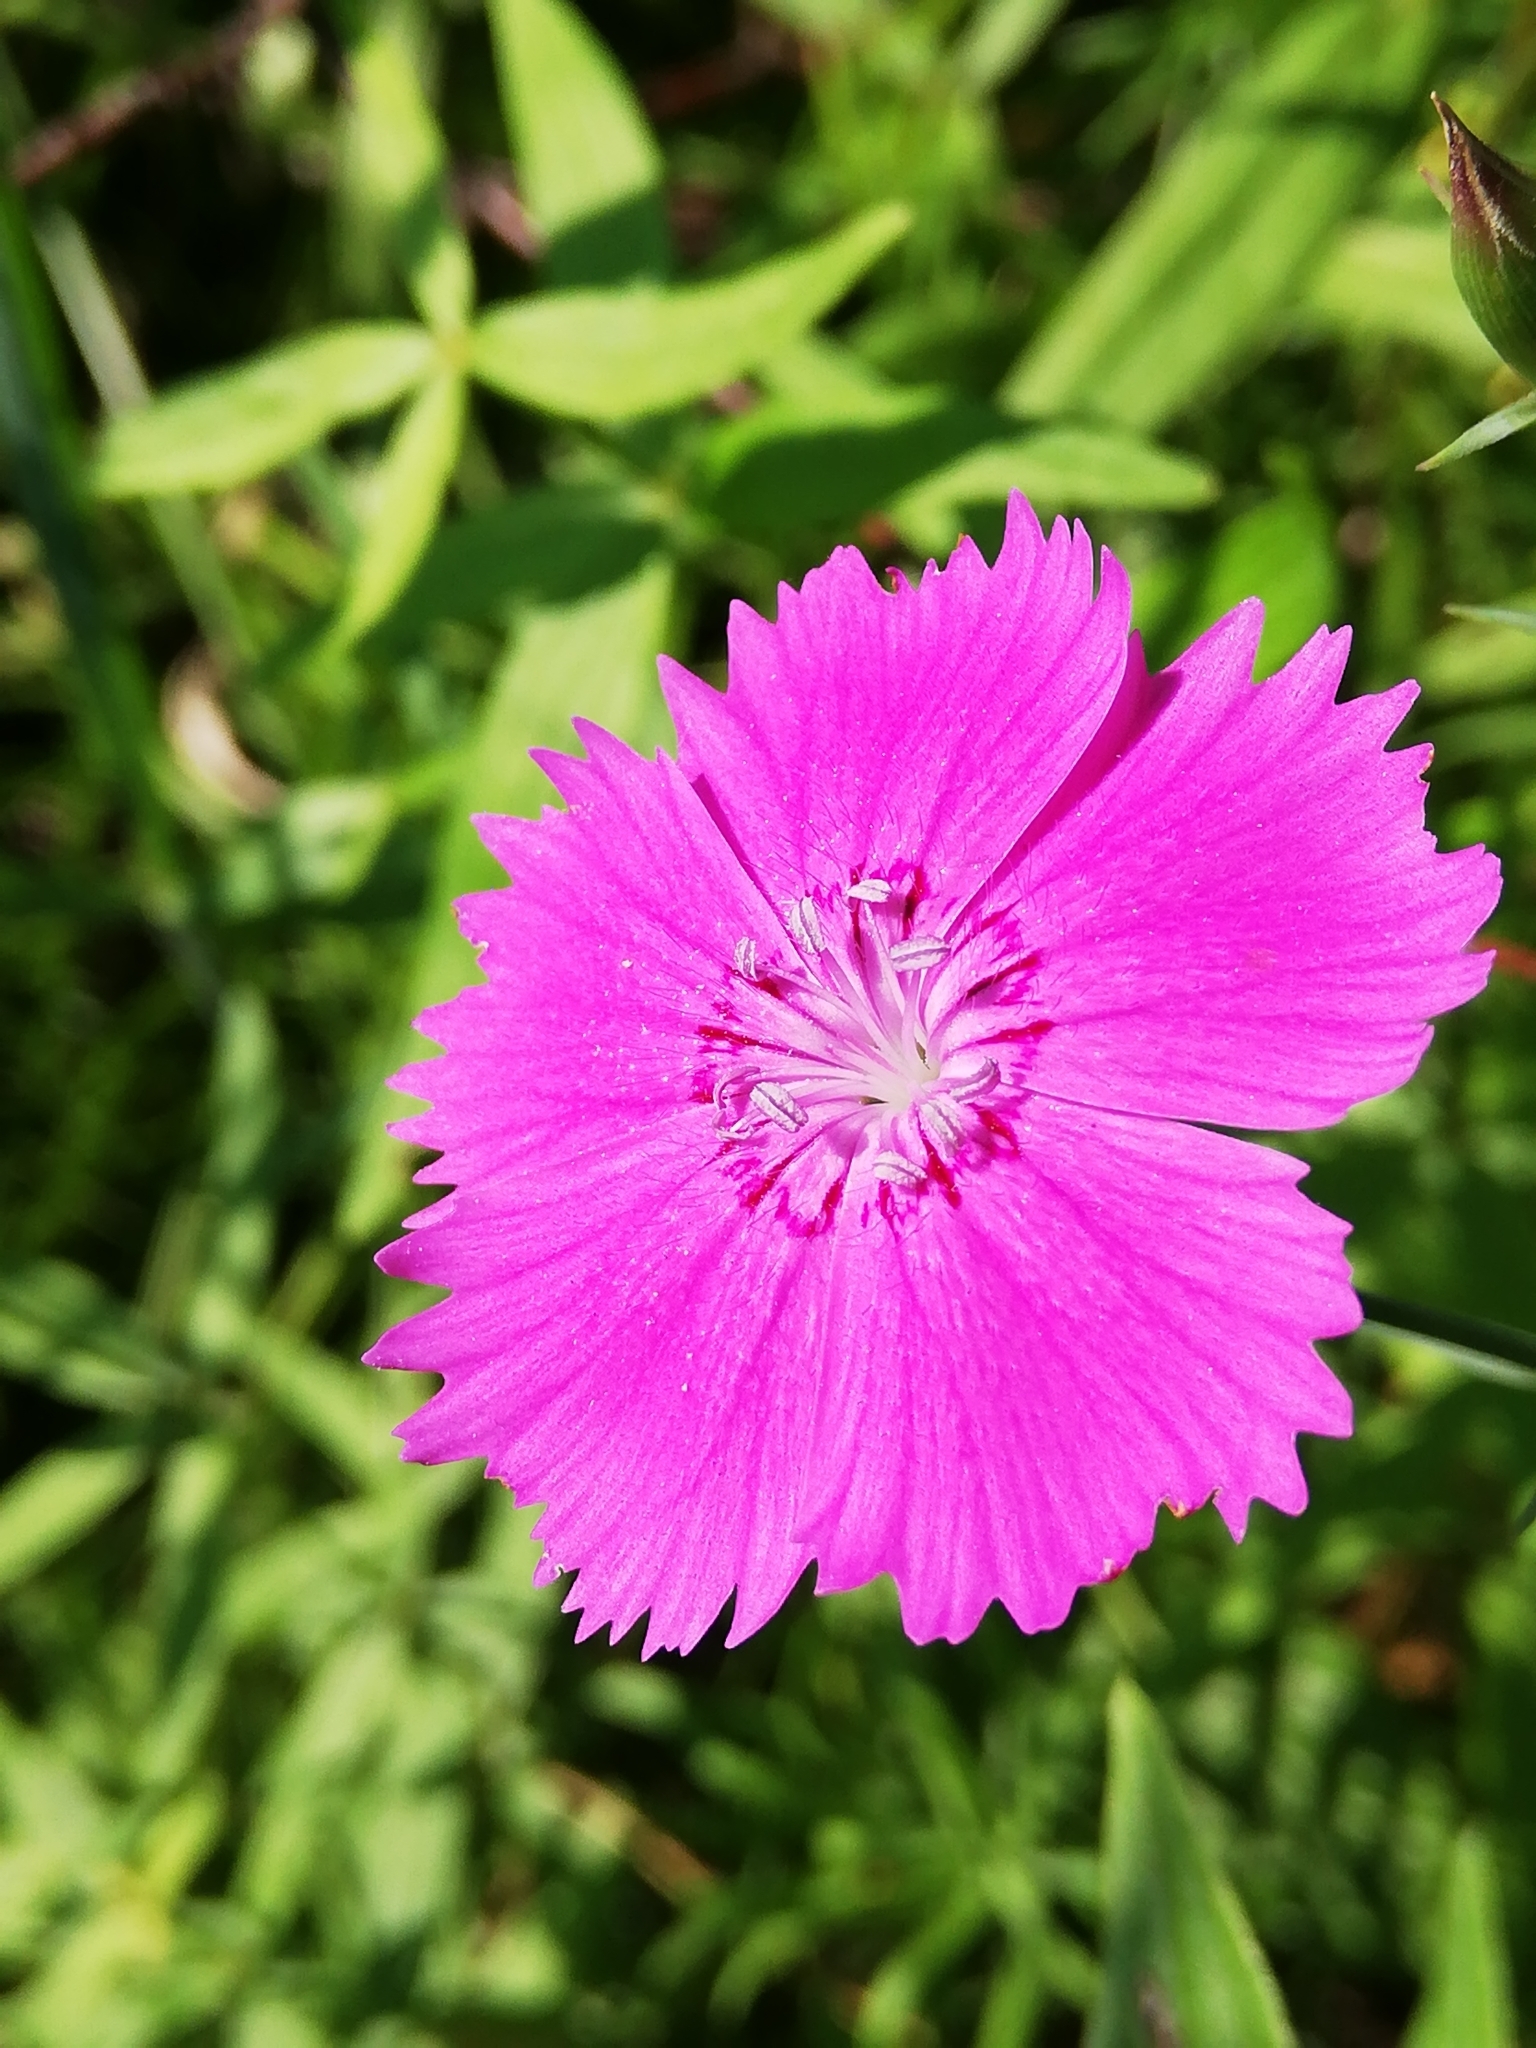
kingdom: Plantae
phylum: Tracheophyta
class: Magnoliopsida
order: Caryophyllales
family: Caryophyllaceae
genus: Dianthus
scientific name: Dianthus chinensis
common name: Rainbow pink
